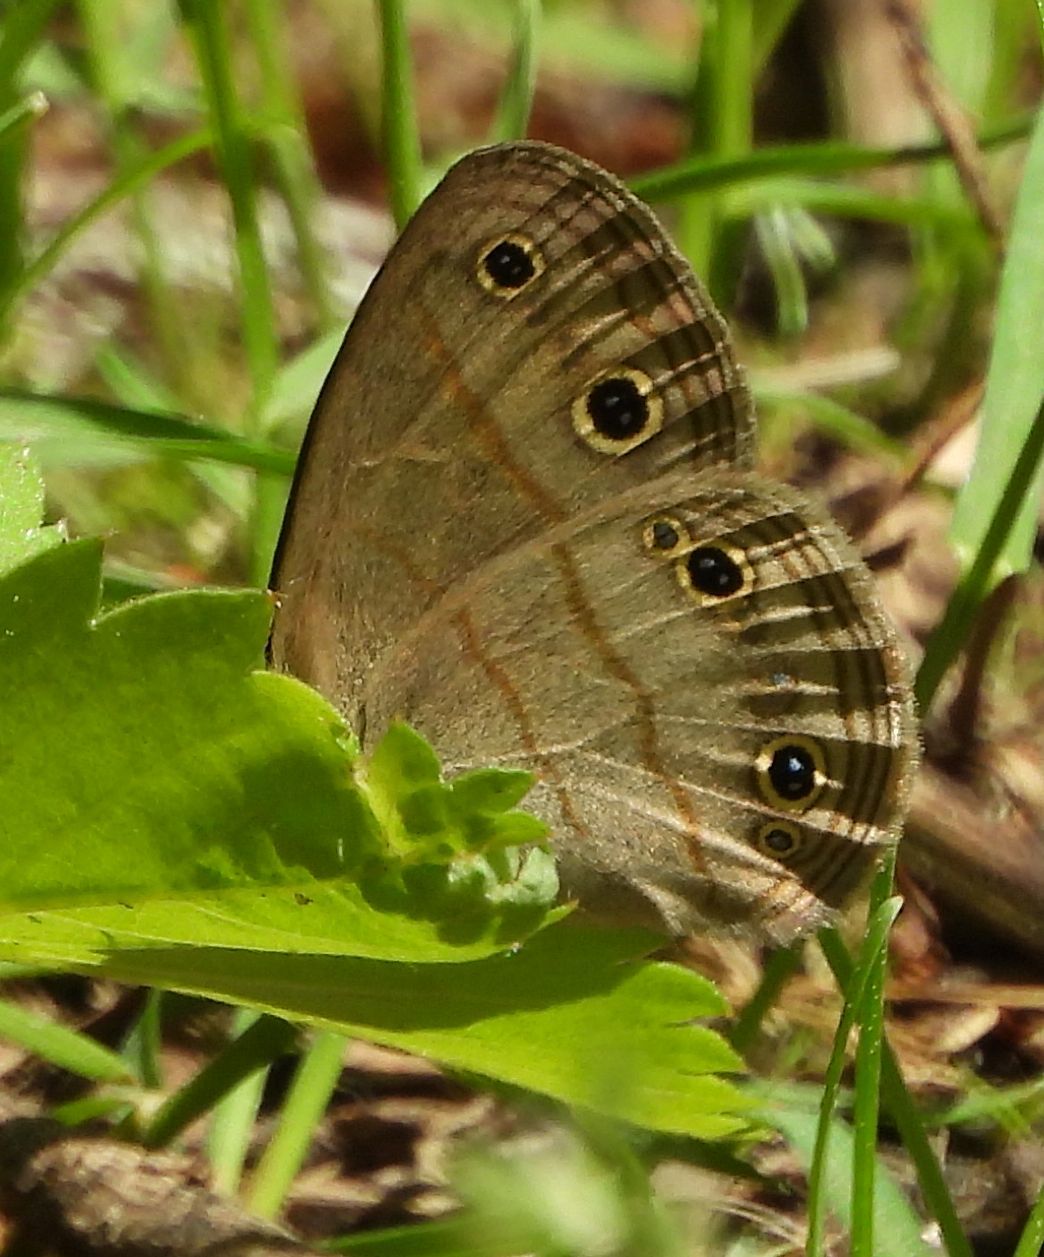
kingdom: Animalia
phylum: Arthropoda
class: Insecta
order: Lepidoptera
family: Nymphalidae
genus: Euptychia
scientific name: Euptychia cymela
